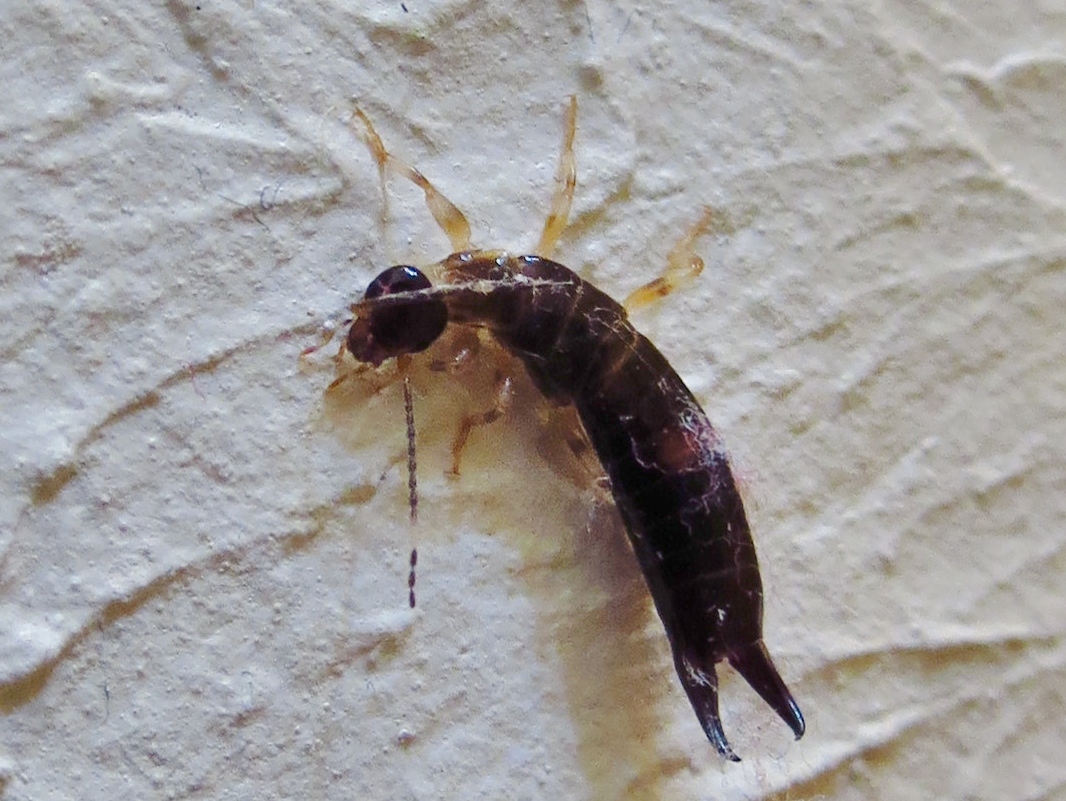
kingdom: Animalia
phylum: Arthropoda
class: Insecta
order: Dermaptera
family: Anisolabididae
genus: Euborellia
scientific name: Euborellia annulipes
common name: Ringlegged earwig
